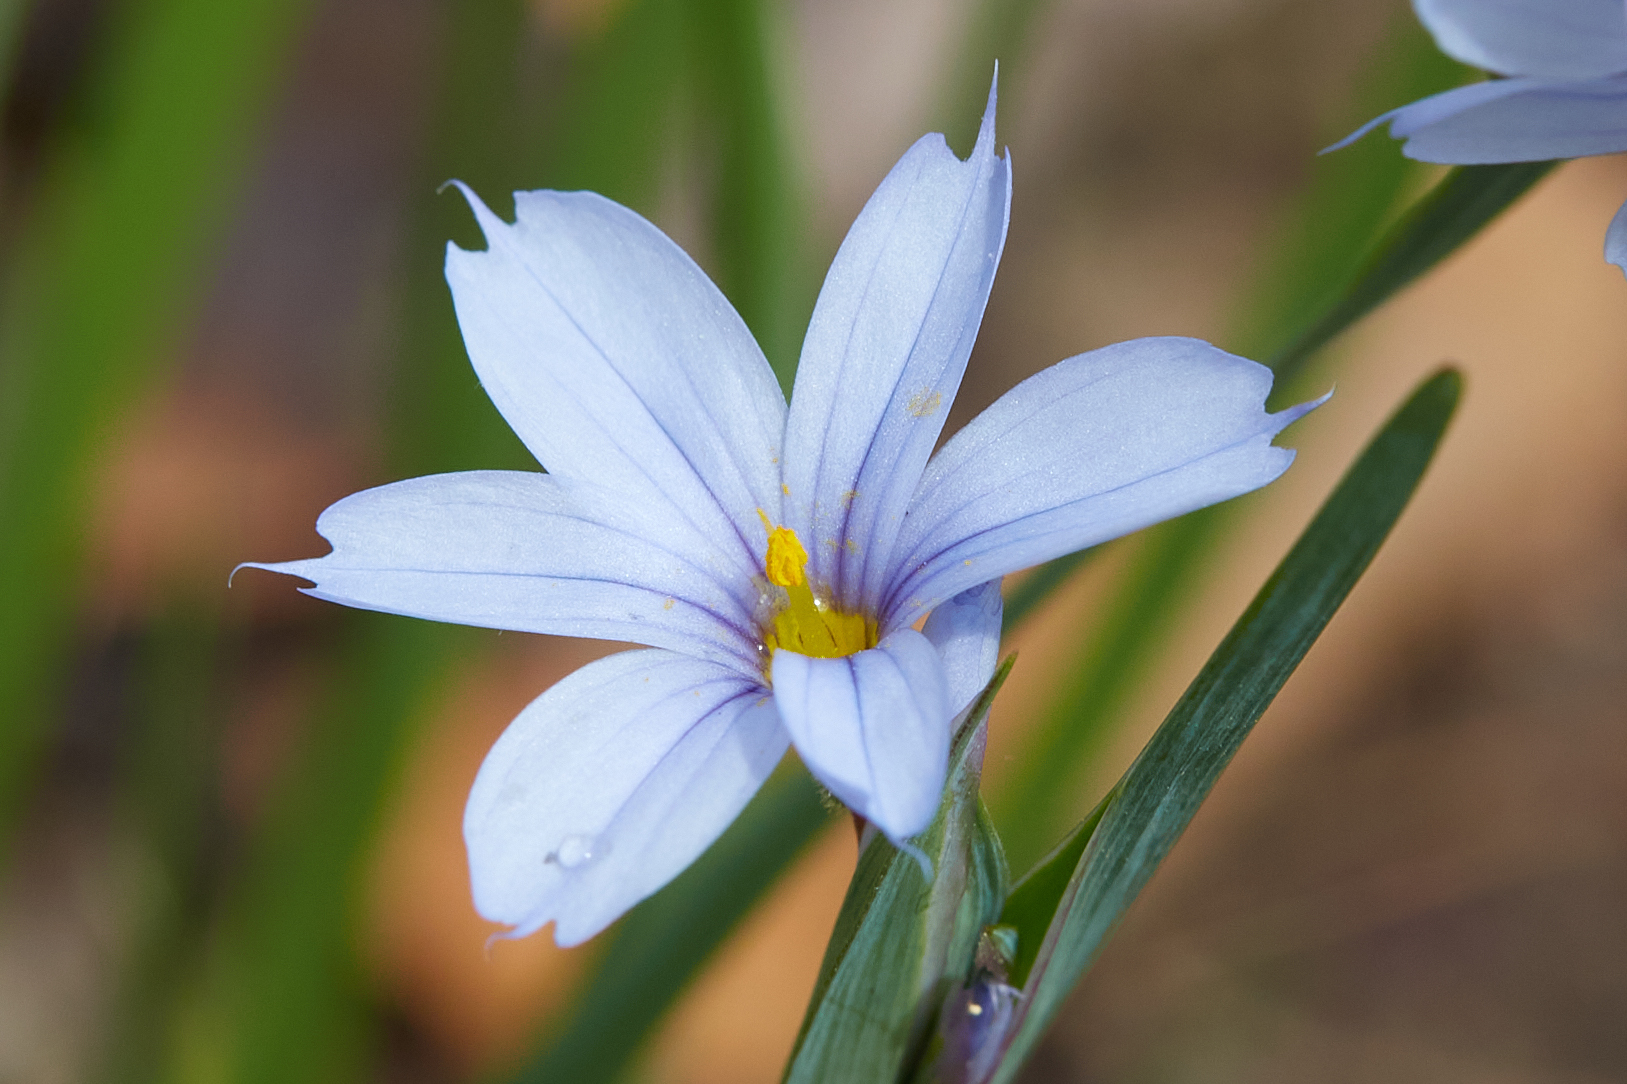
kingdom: Plantae
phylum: Tracheophyta
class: Liliopsida
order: Asparagales
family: Iridaceae
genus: Sisyrinchium
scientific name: Sisyrinchium albidum
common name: Pale blue-eyed-grass
